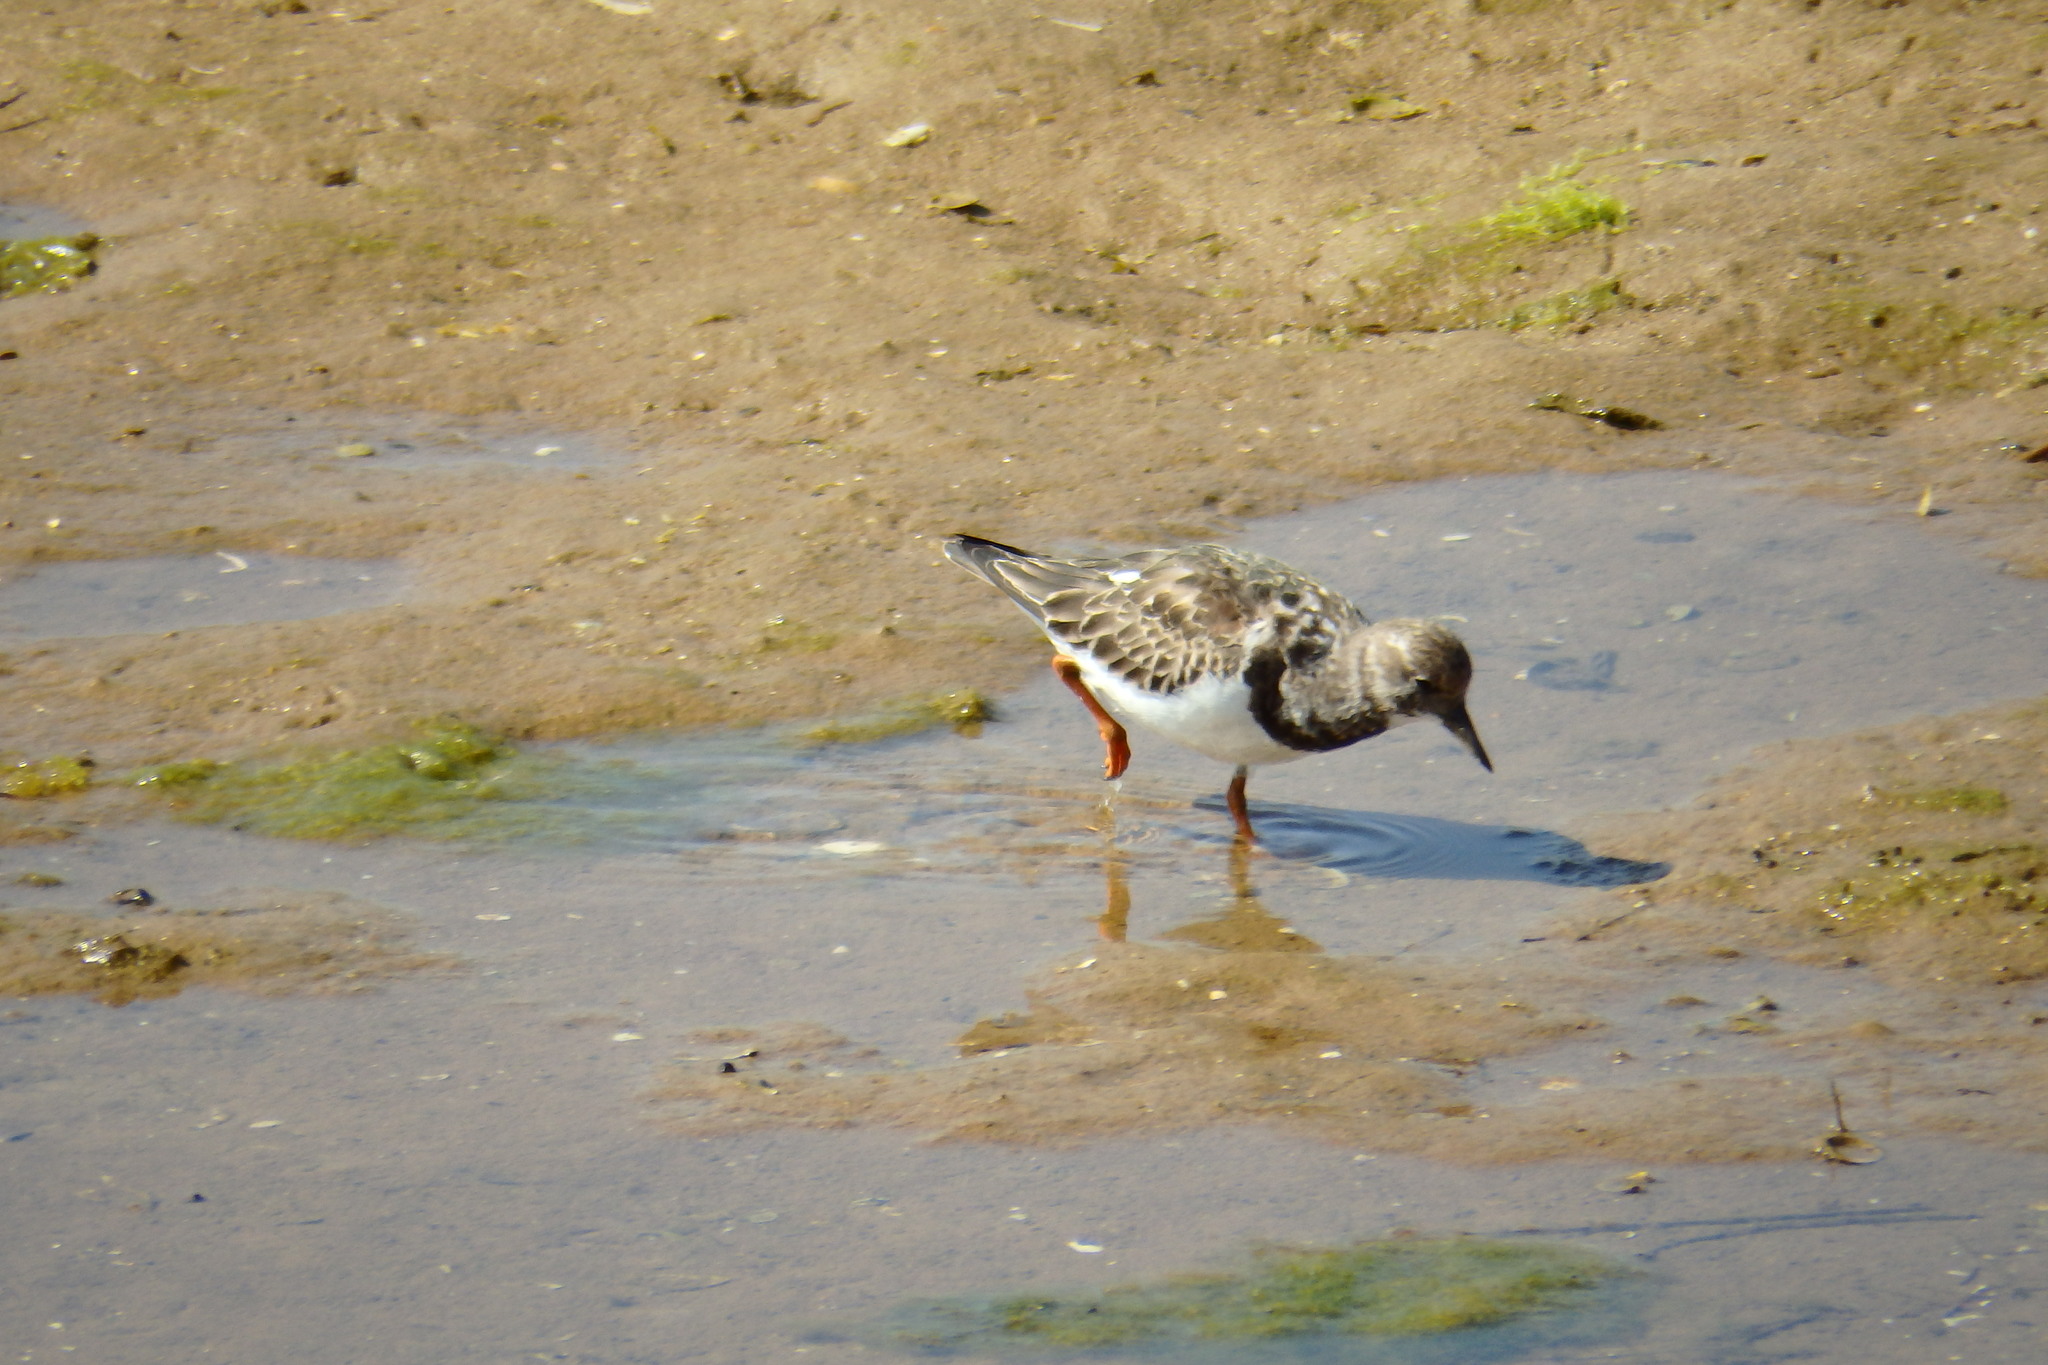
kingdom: Animalia
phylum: Chordata
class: Aves
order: Charadriiformes
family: Scolopacidae
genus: Arenaria
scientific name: Arenaria interpres
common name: Ruddy turnstone
